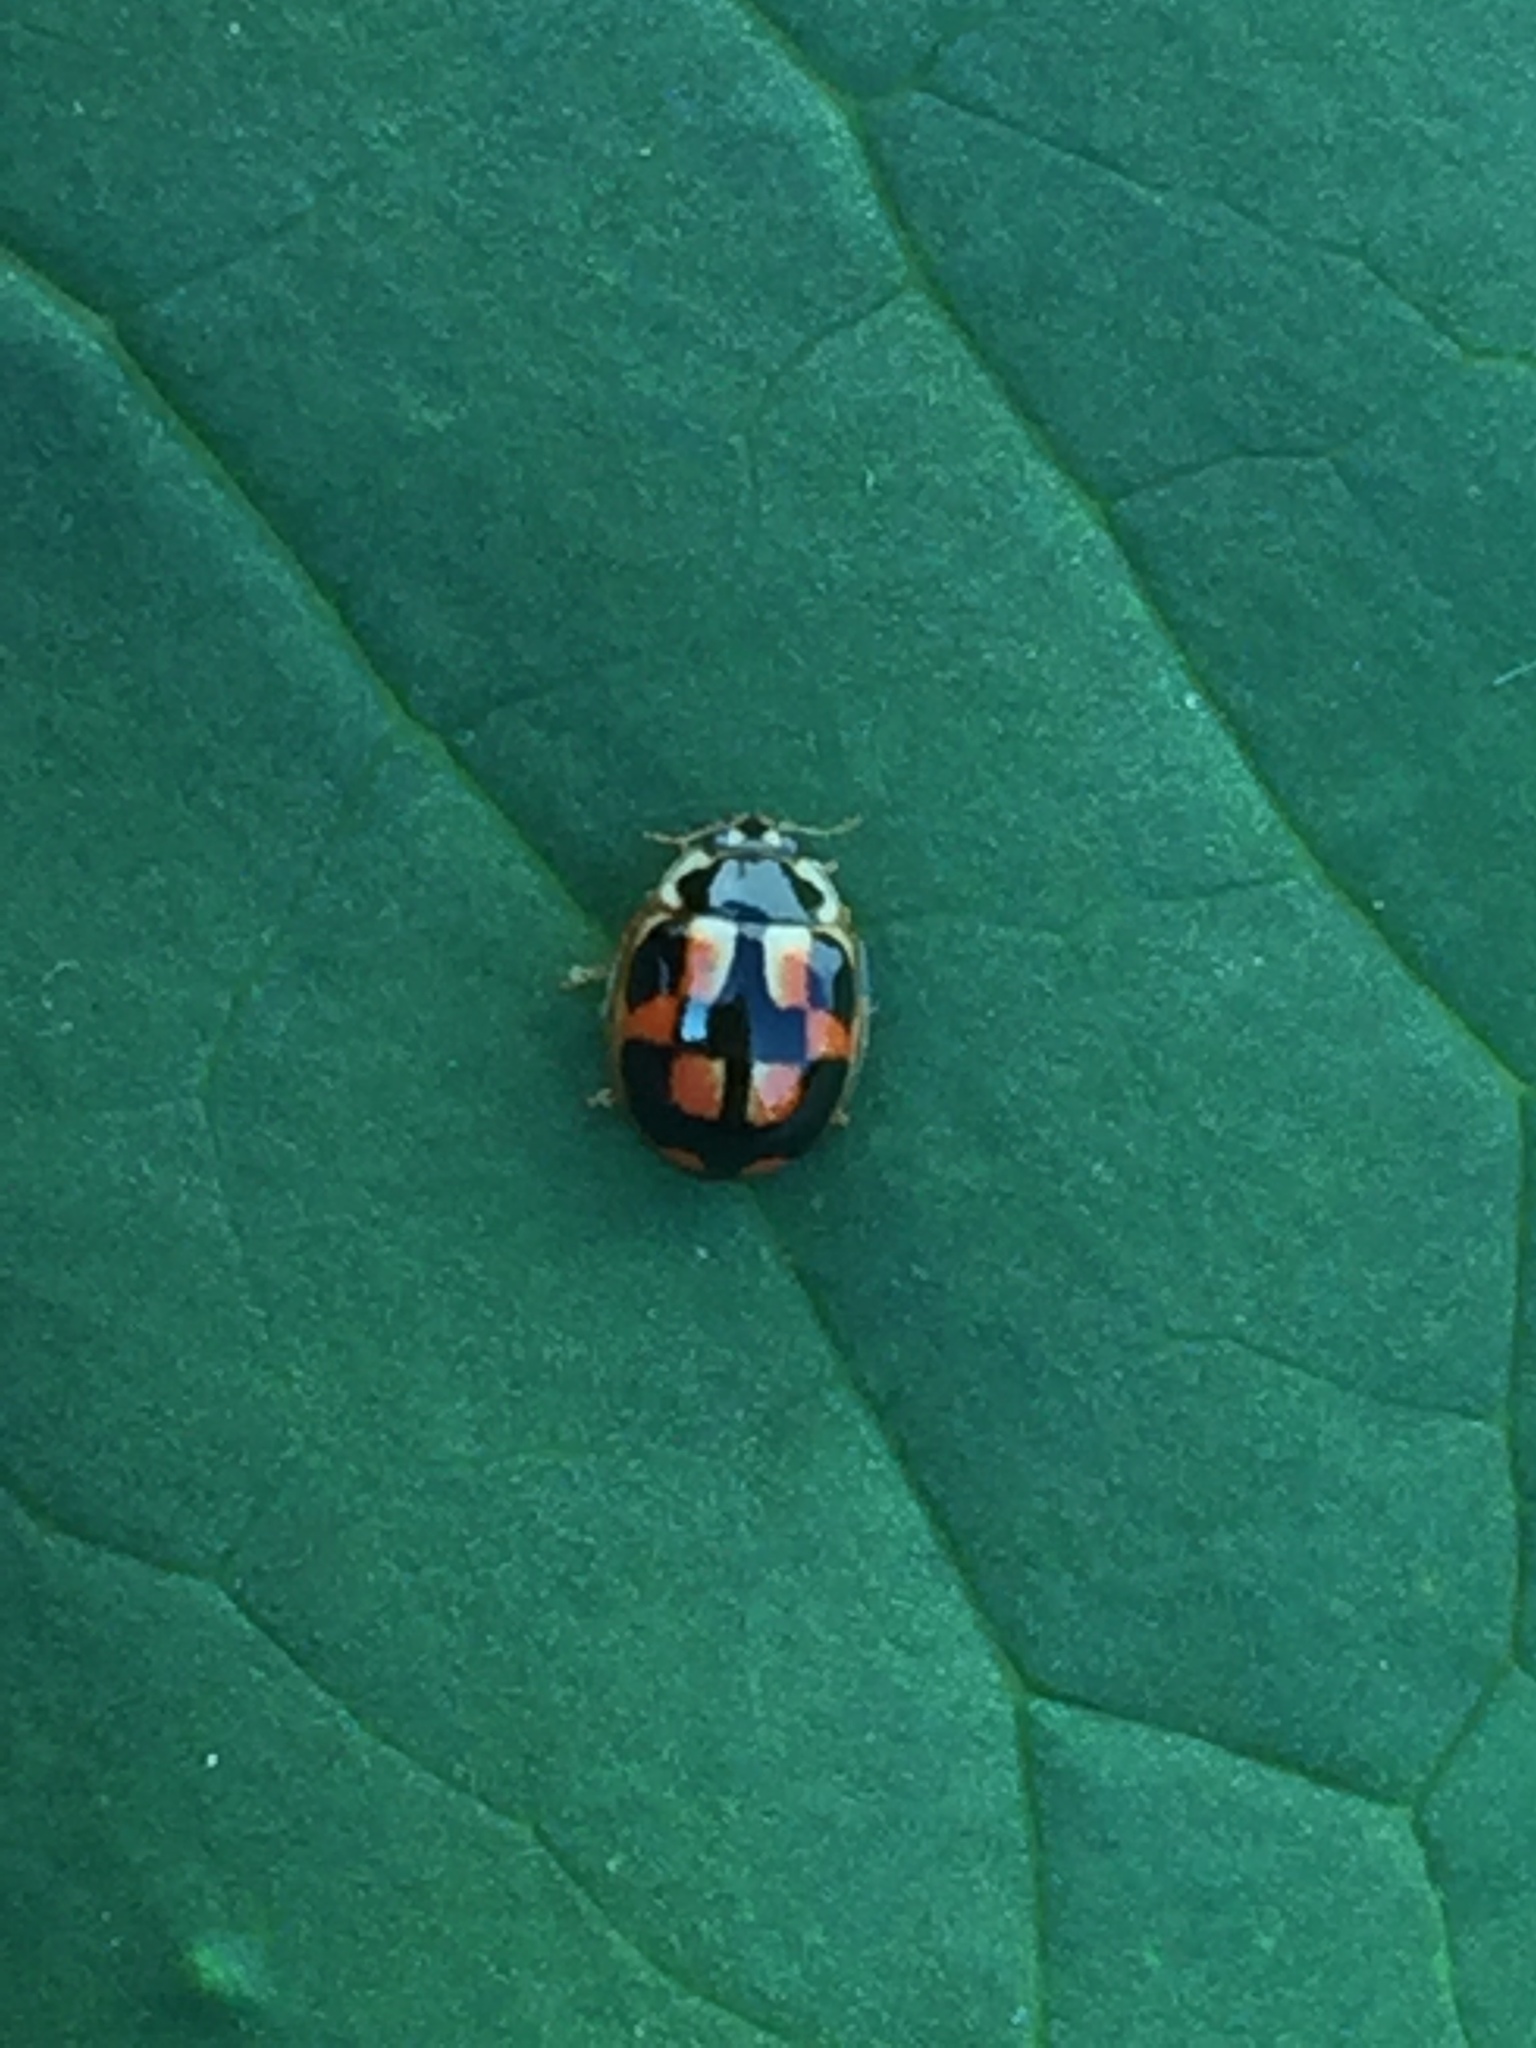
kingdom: Animalia
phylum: Arthropoda
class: Insecta
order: Coleoptera
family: Coccinellidae
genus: Propylea
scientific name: Propylea japonica
